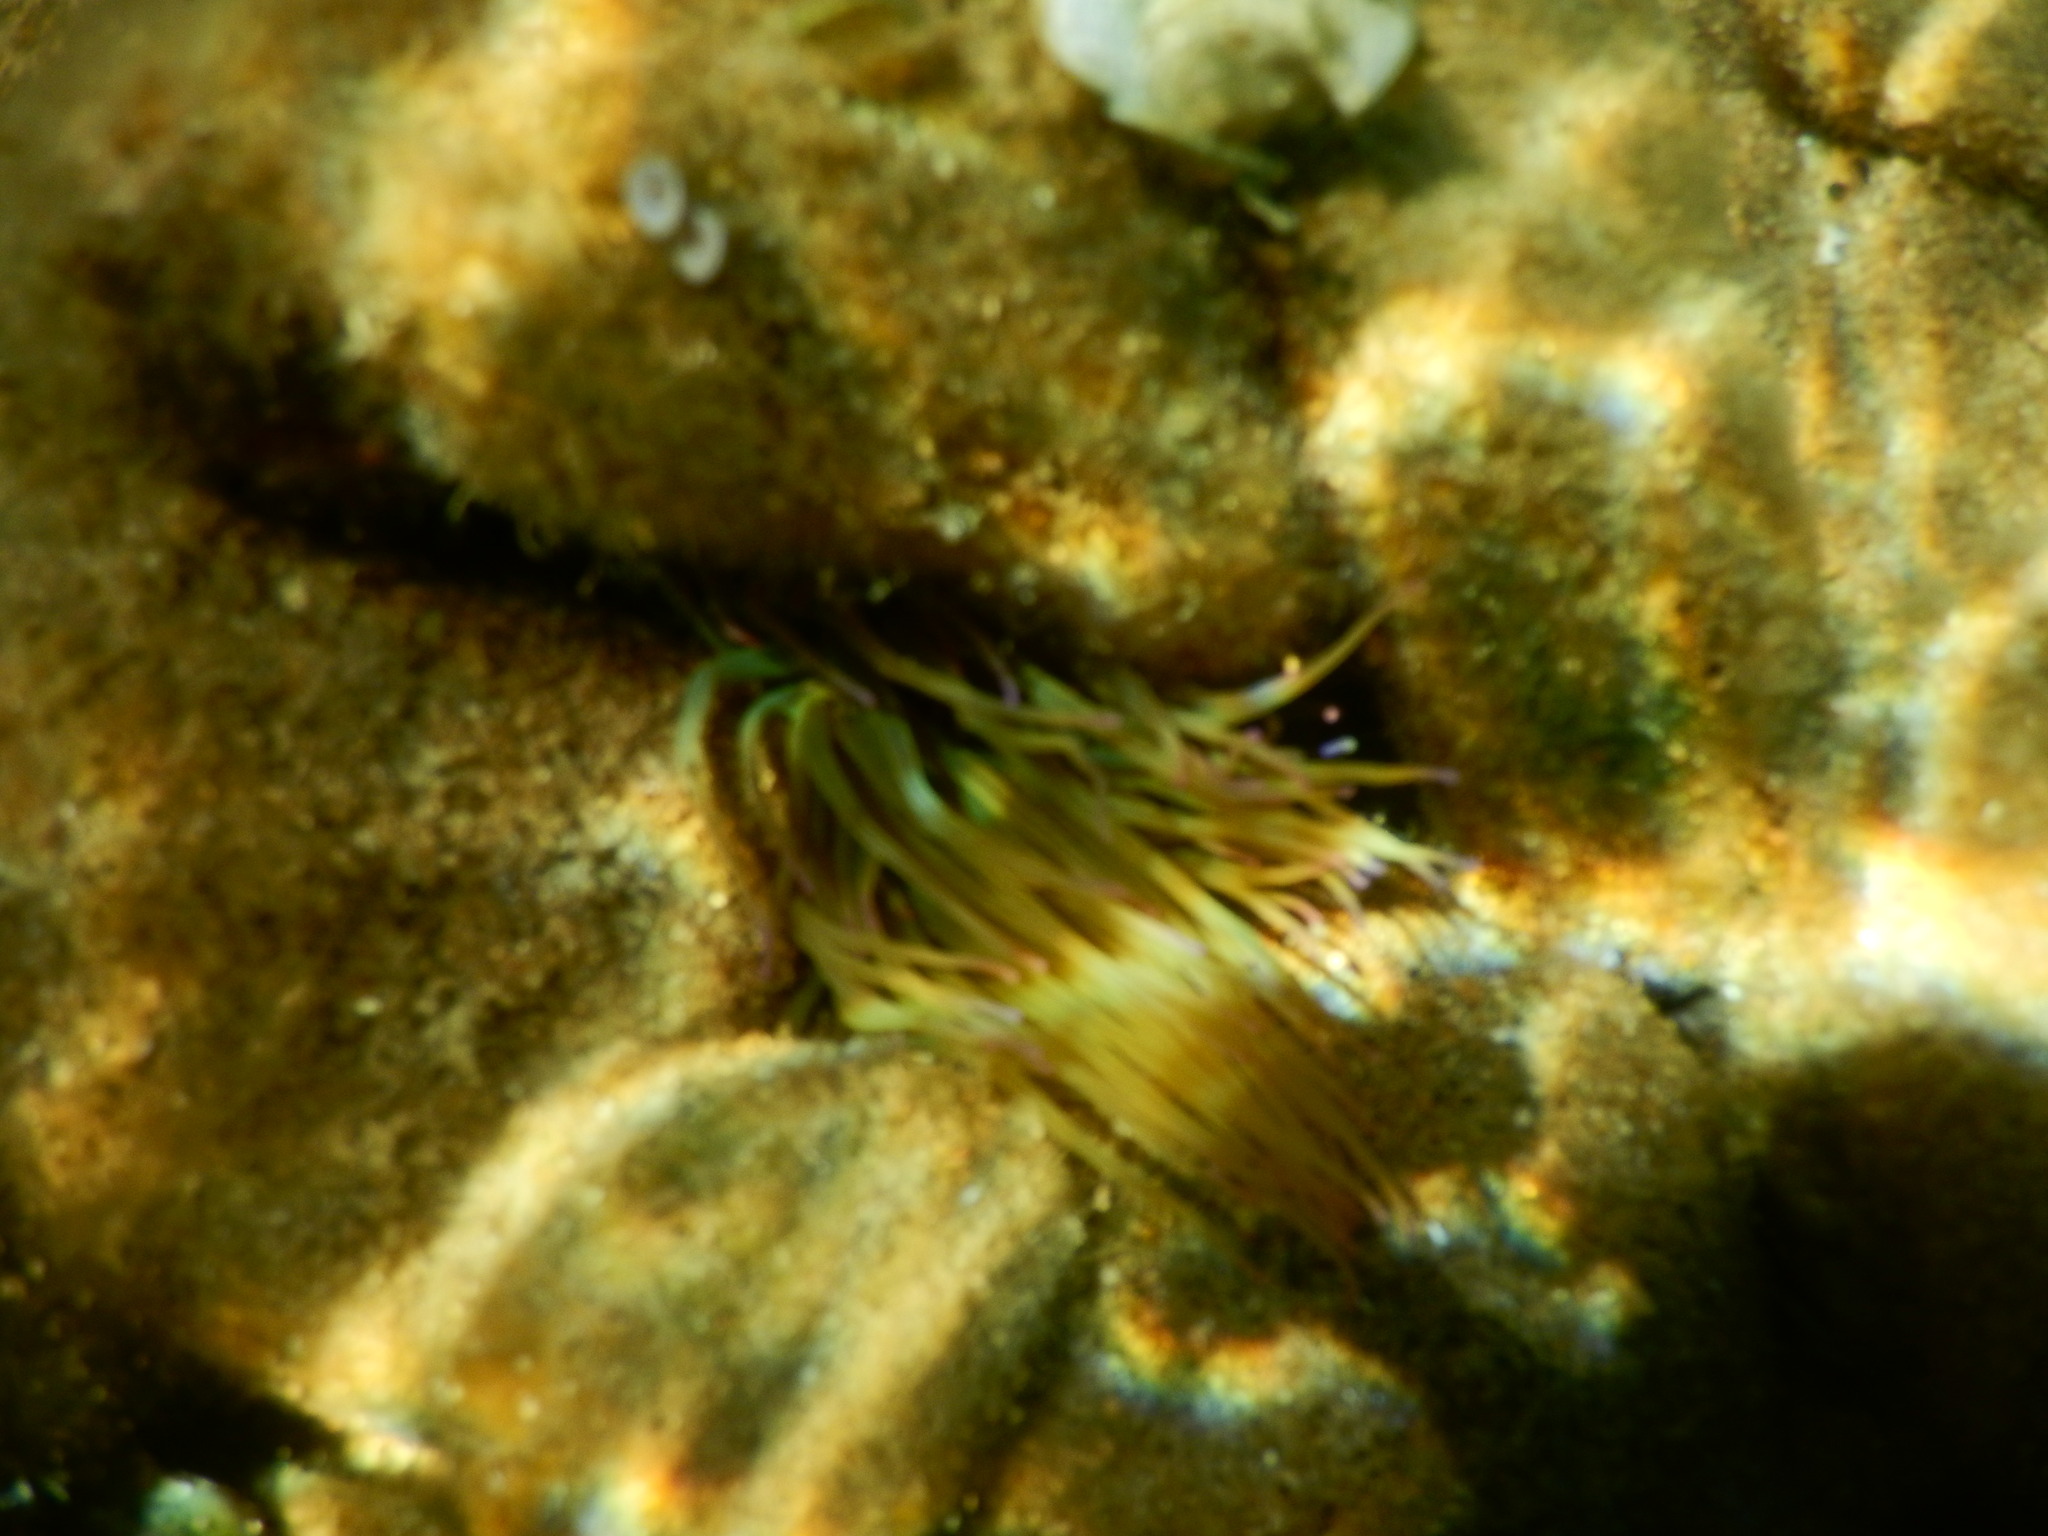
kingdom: Animalia
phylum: Cnidaria
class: Anthozoa
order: Actiniaria
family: Actiniidae
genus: Anemonia
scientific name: Anemonia viridis
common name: Snakelocks anemone
